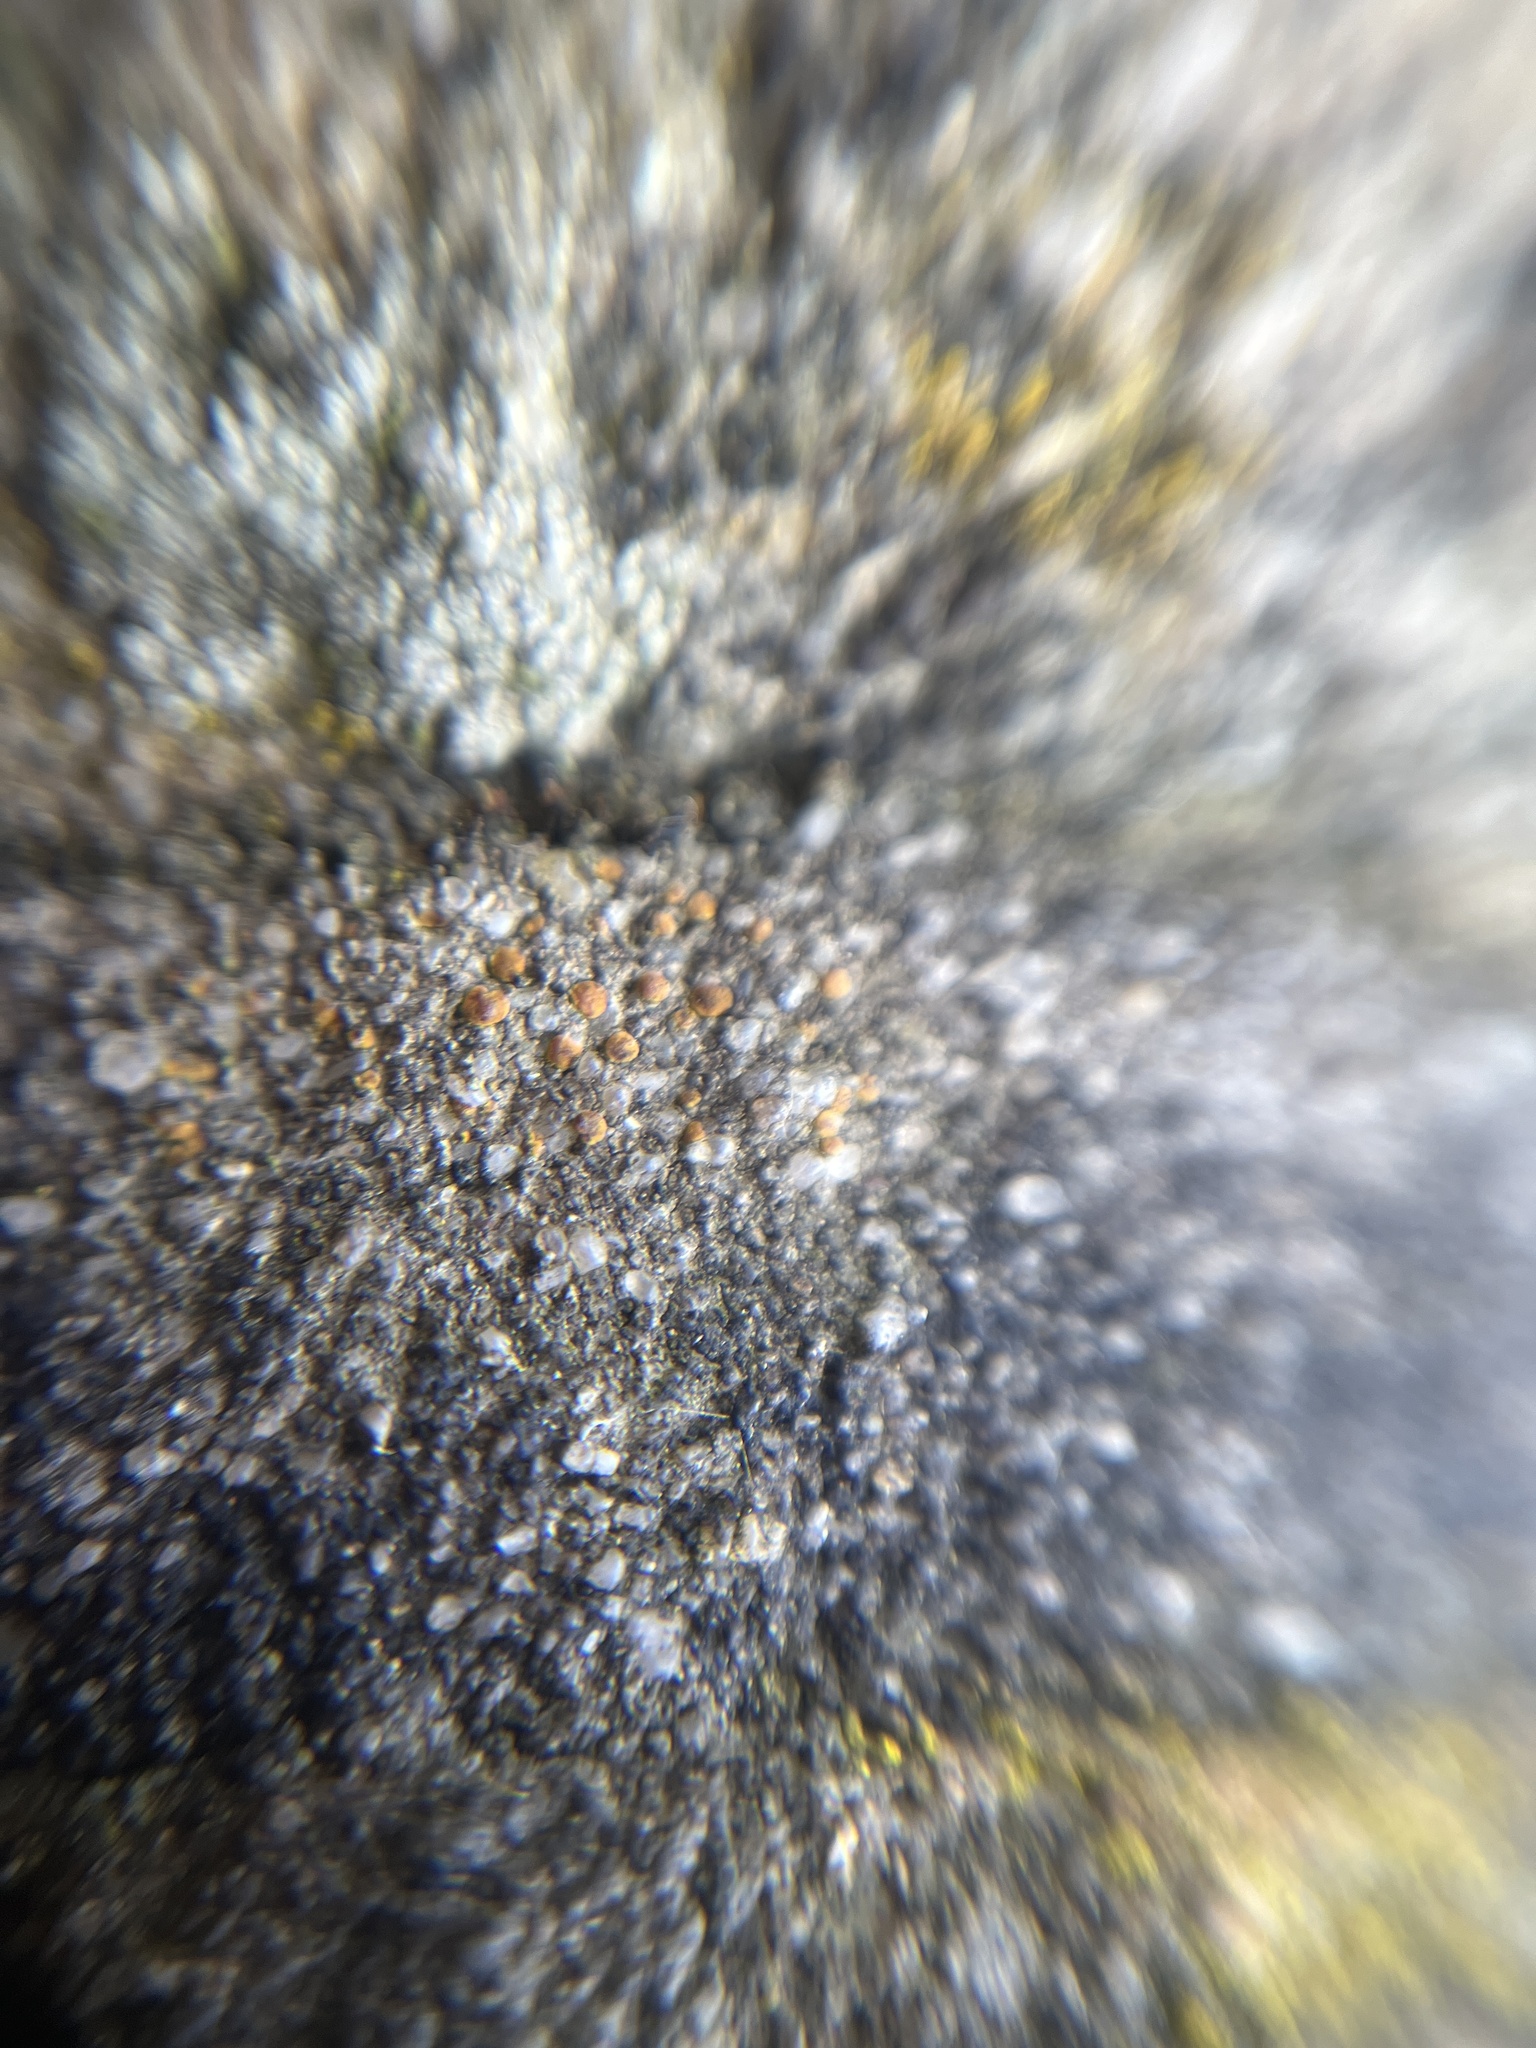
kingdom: Fungi
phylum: Ascomycota
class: Lecanoromycetes
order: Lecanorales
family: Psoraceae
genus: Protoblastenia
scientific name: Protoblastenia rupestris
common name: Chewing gum lichen
